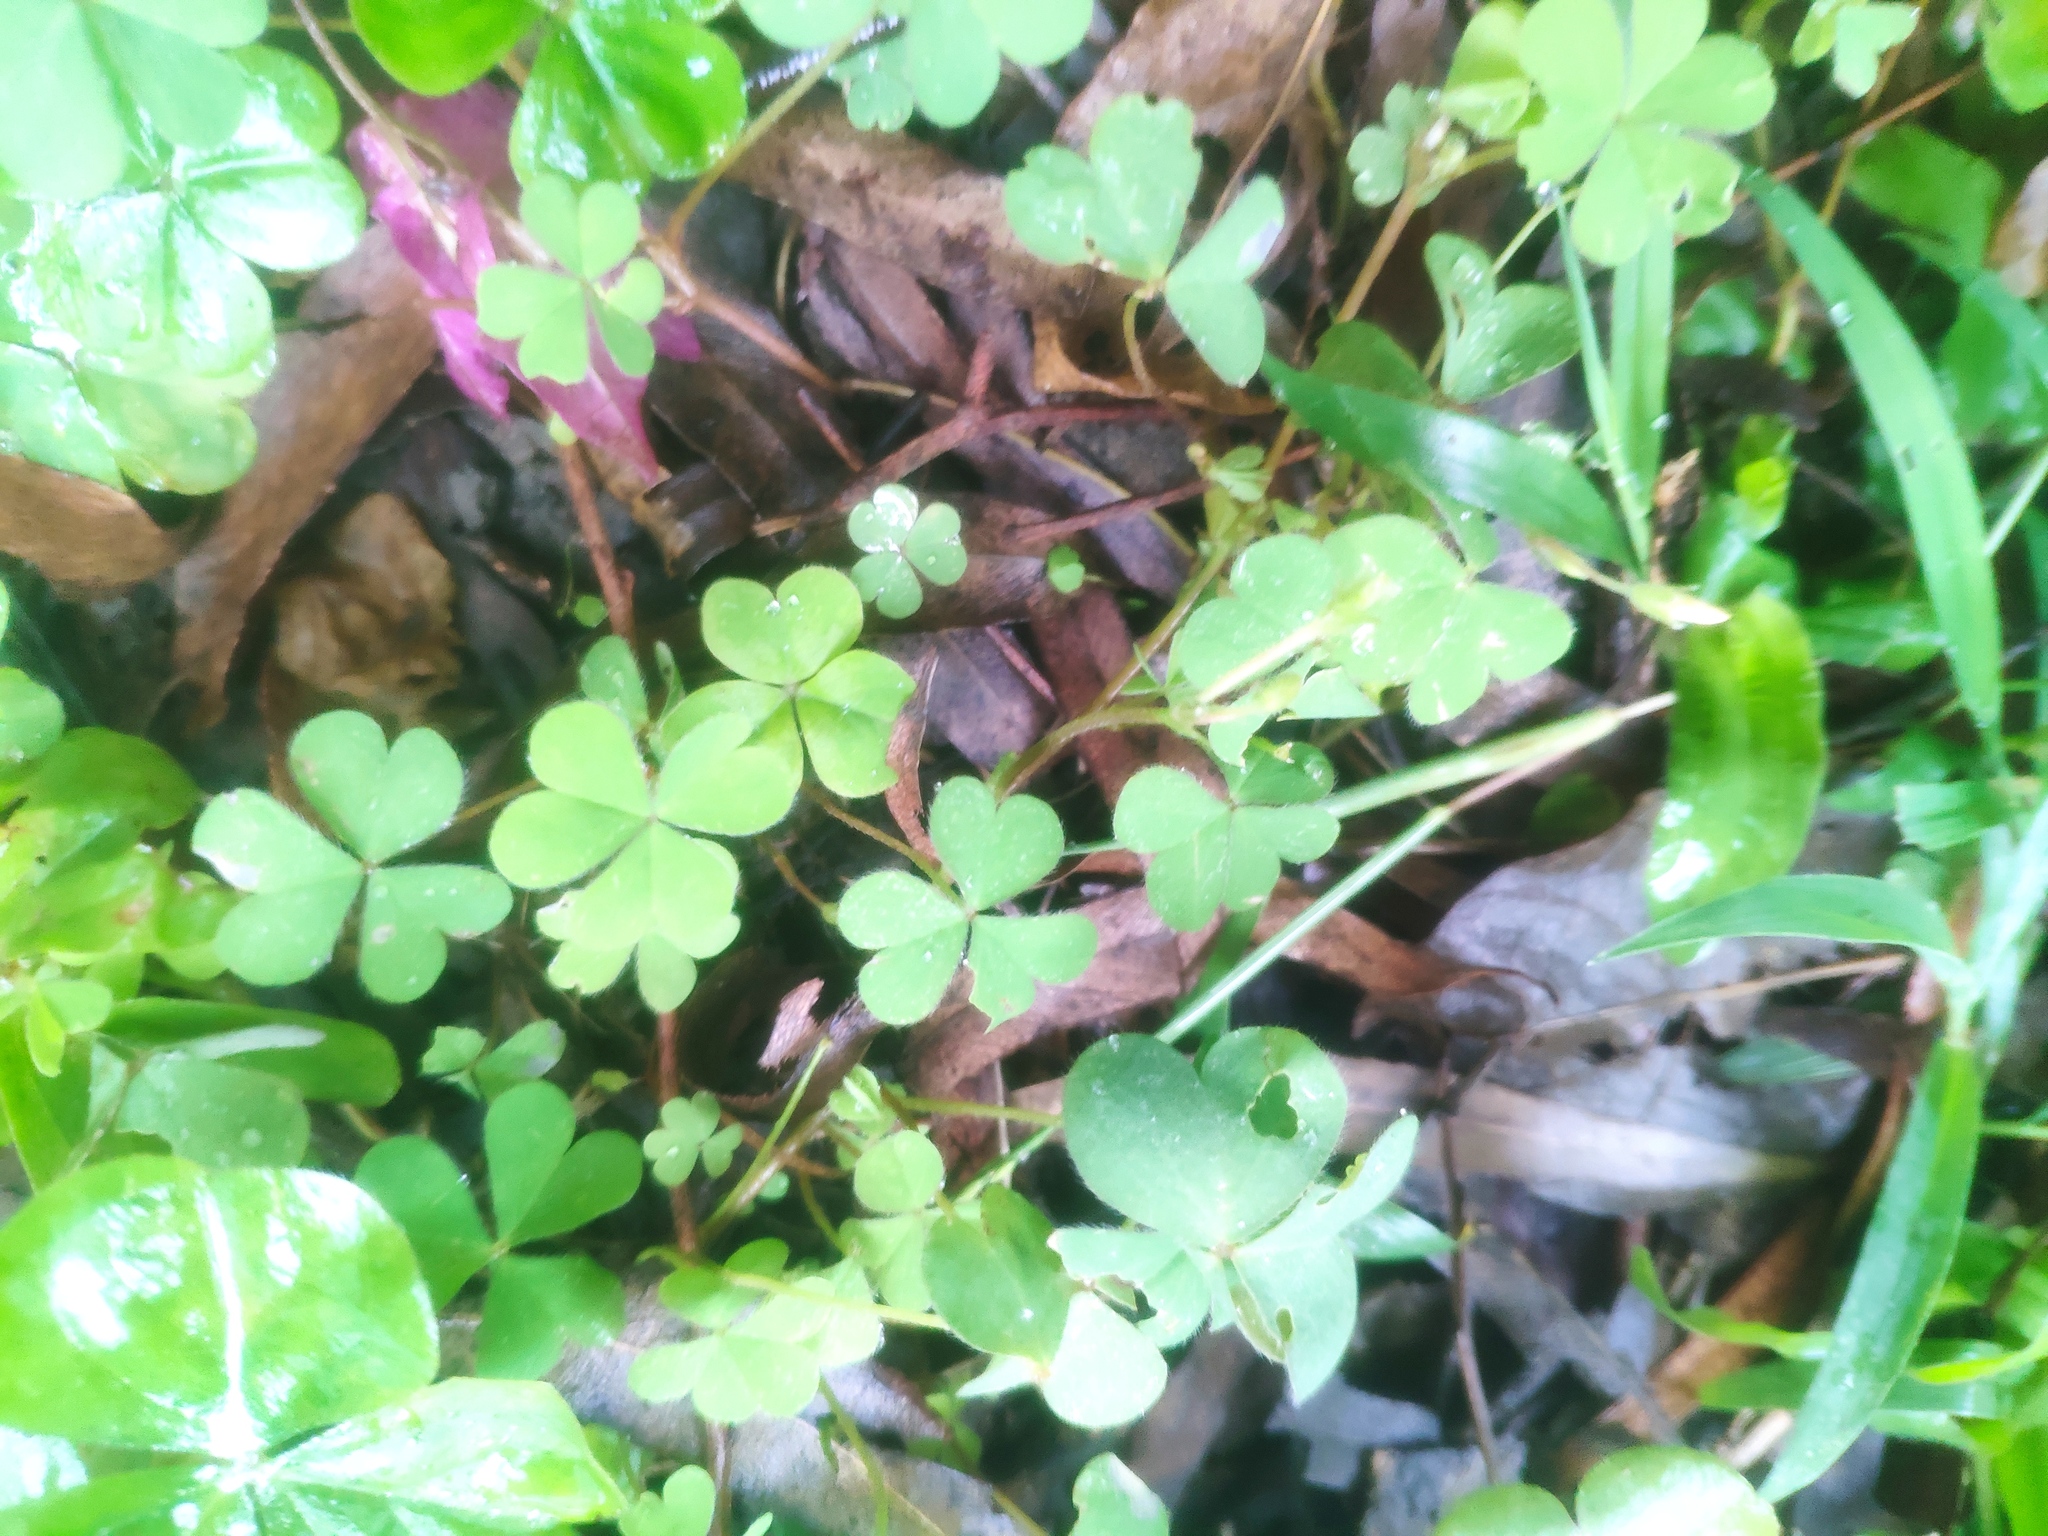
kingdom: Plantae
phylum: Tracheophyta
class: Magnoliopsida
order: Oxalidales
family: Oxalidaceae
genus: Oxalis
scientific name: Oxalis corniculata
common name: Procumbent yellow-sorrel
